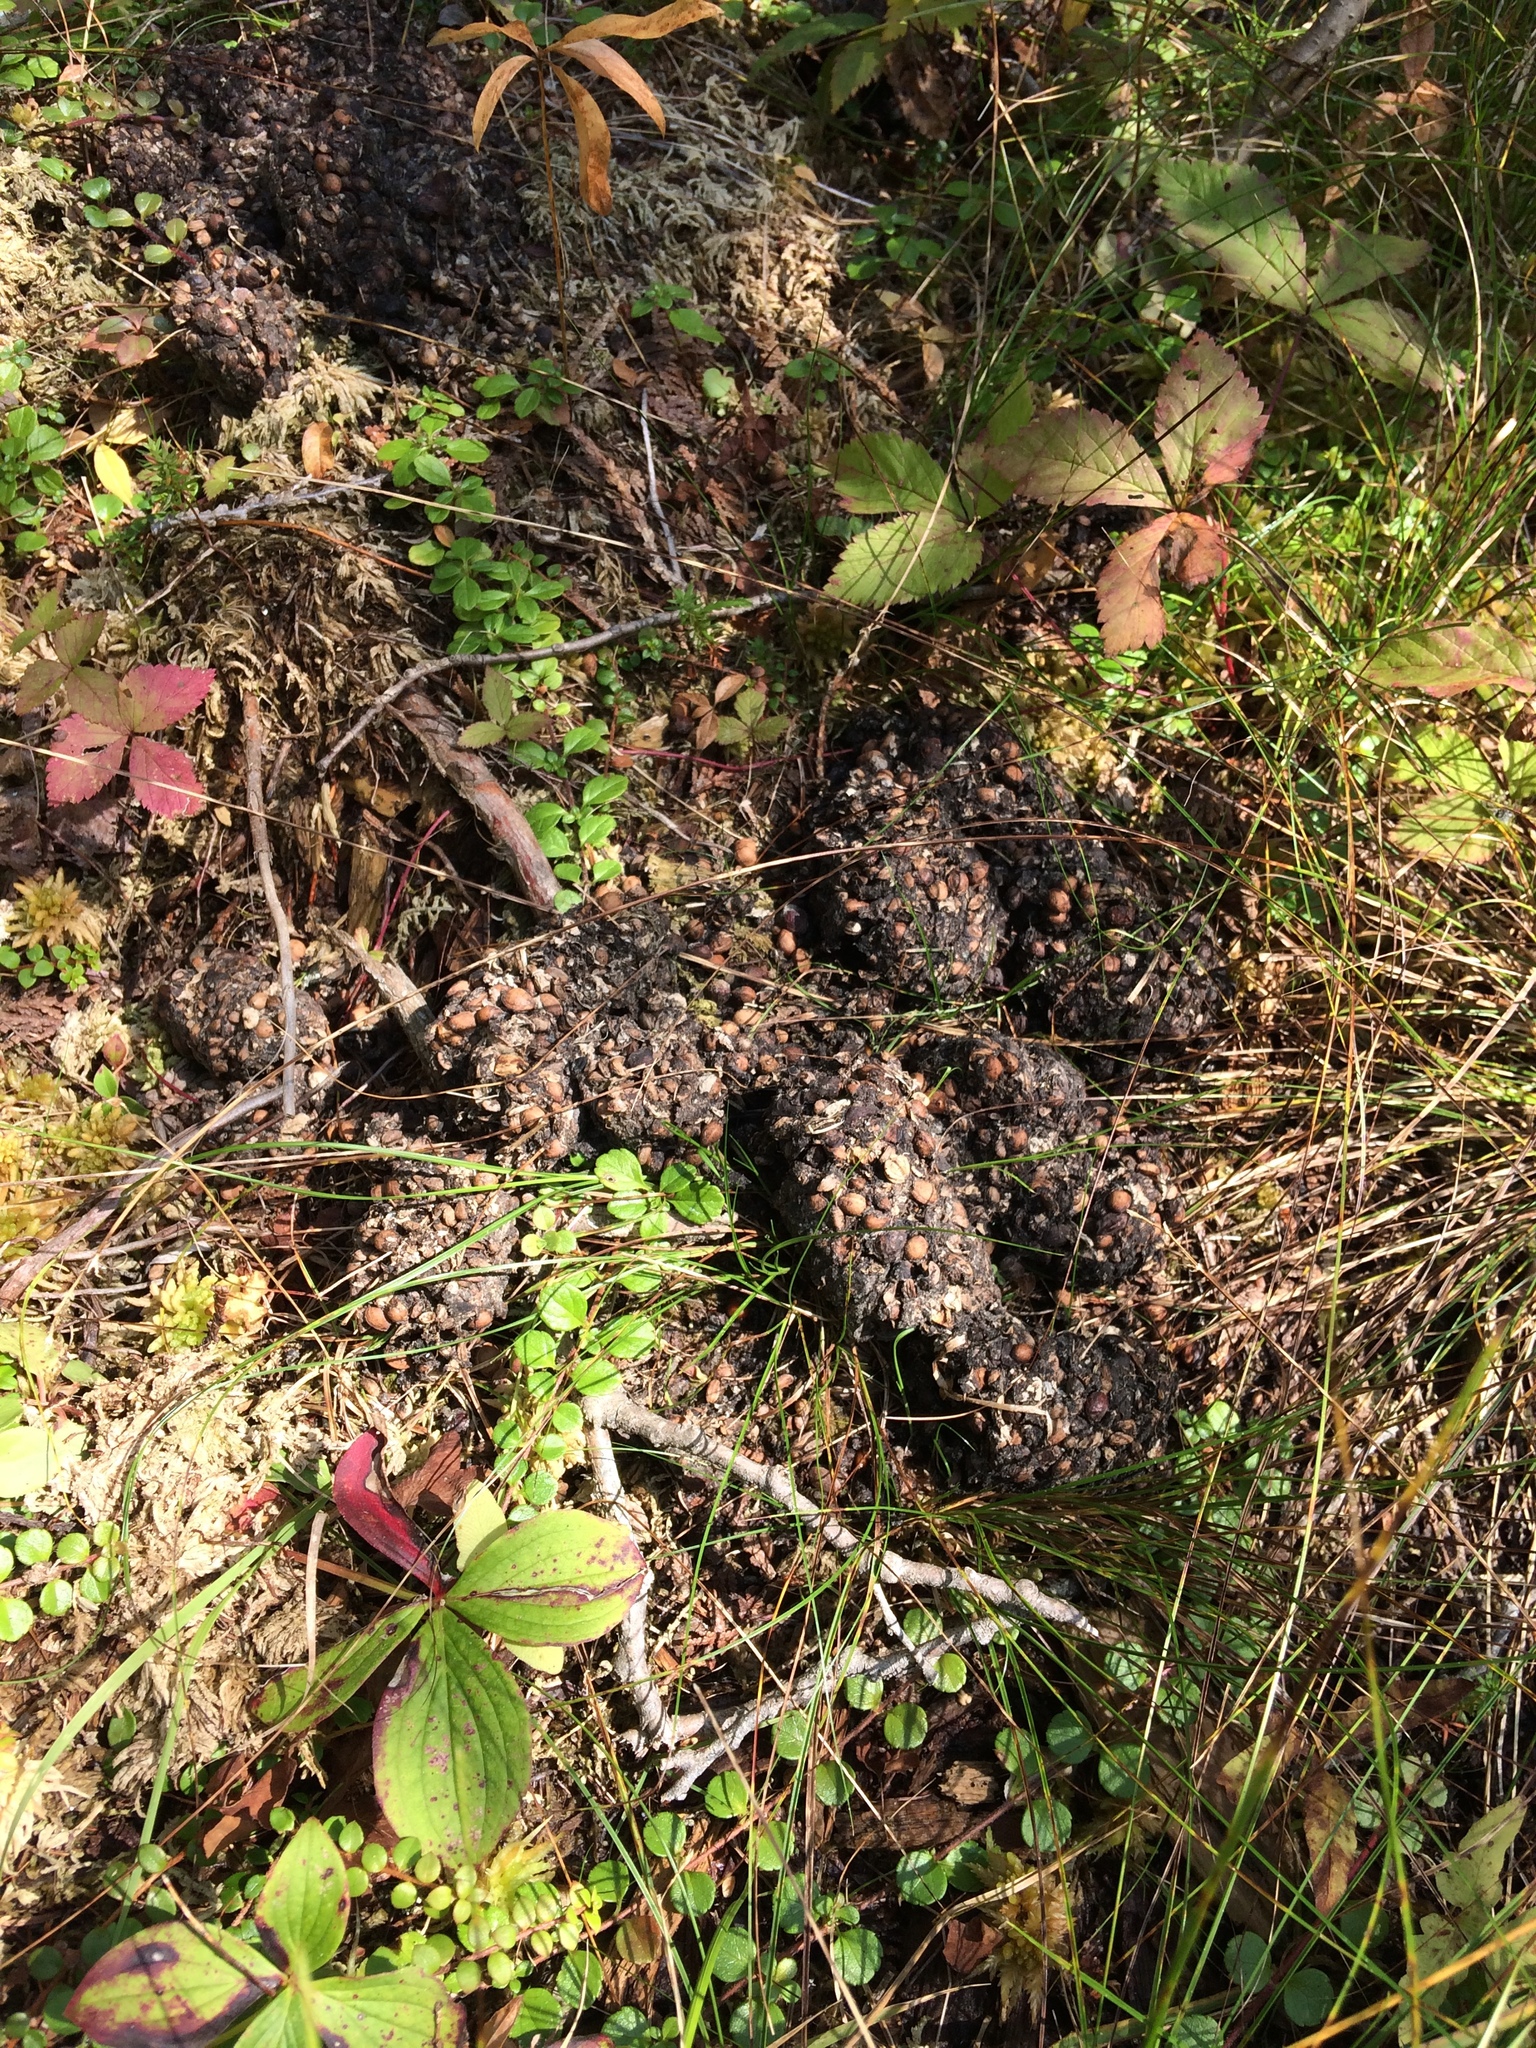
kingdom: Animalia
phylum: Chordata
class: Mammalia
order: Carnivora
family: Ursidae
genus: Ursus
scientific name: Ursus americanus
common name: American black bear
